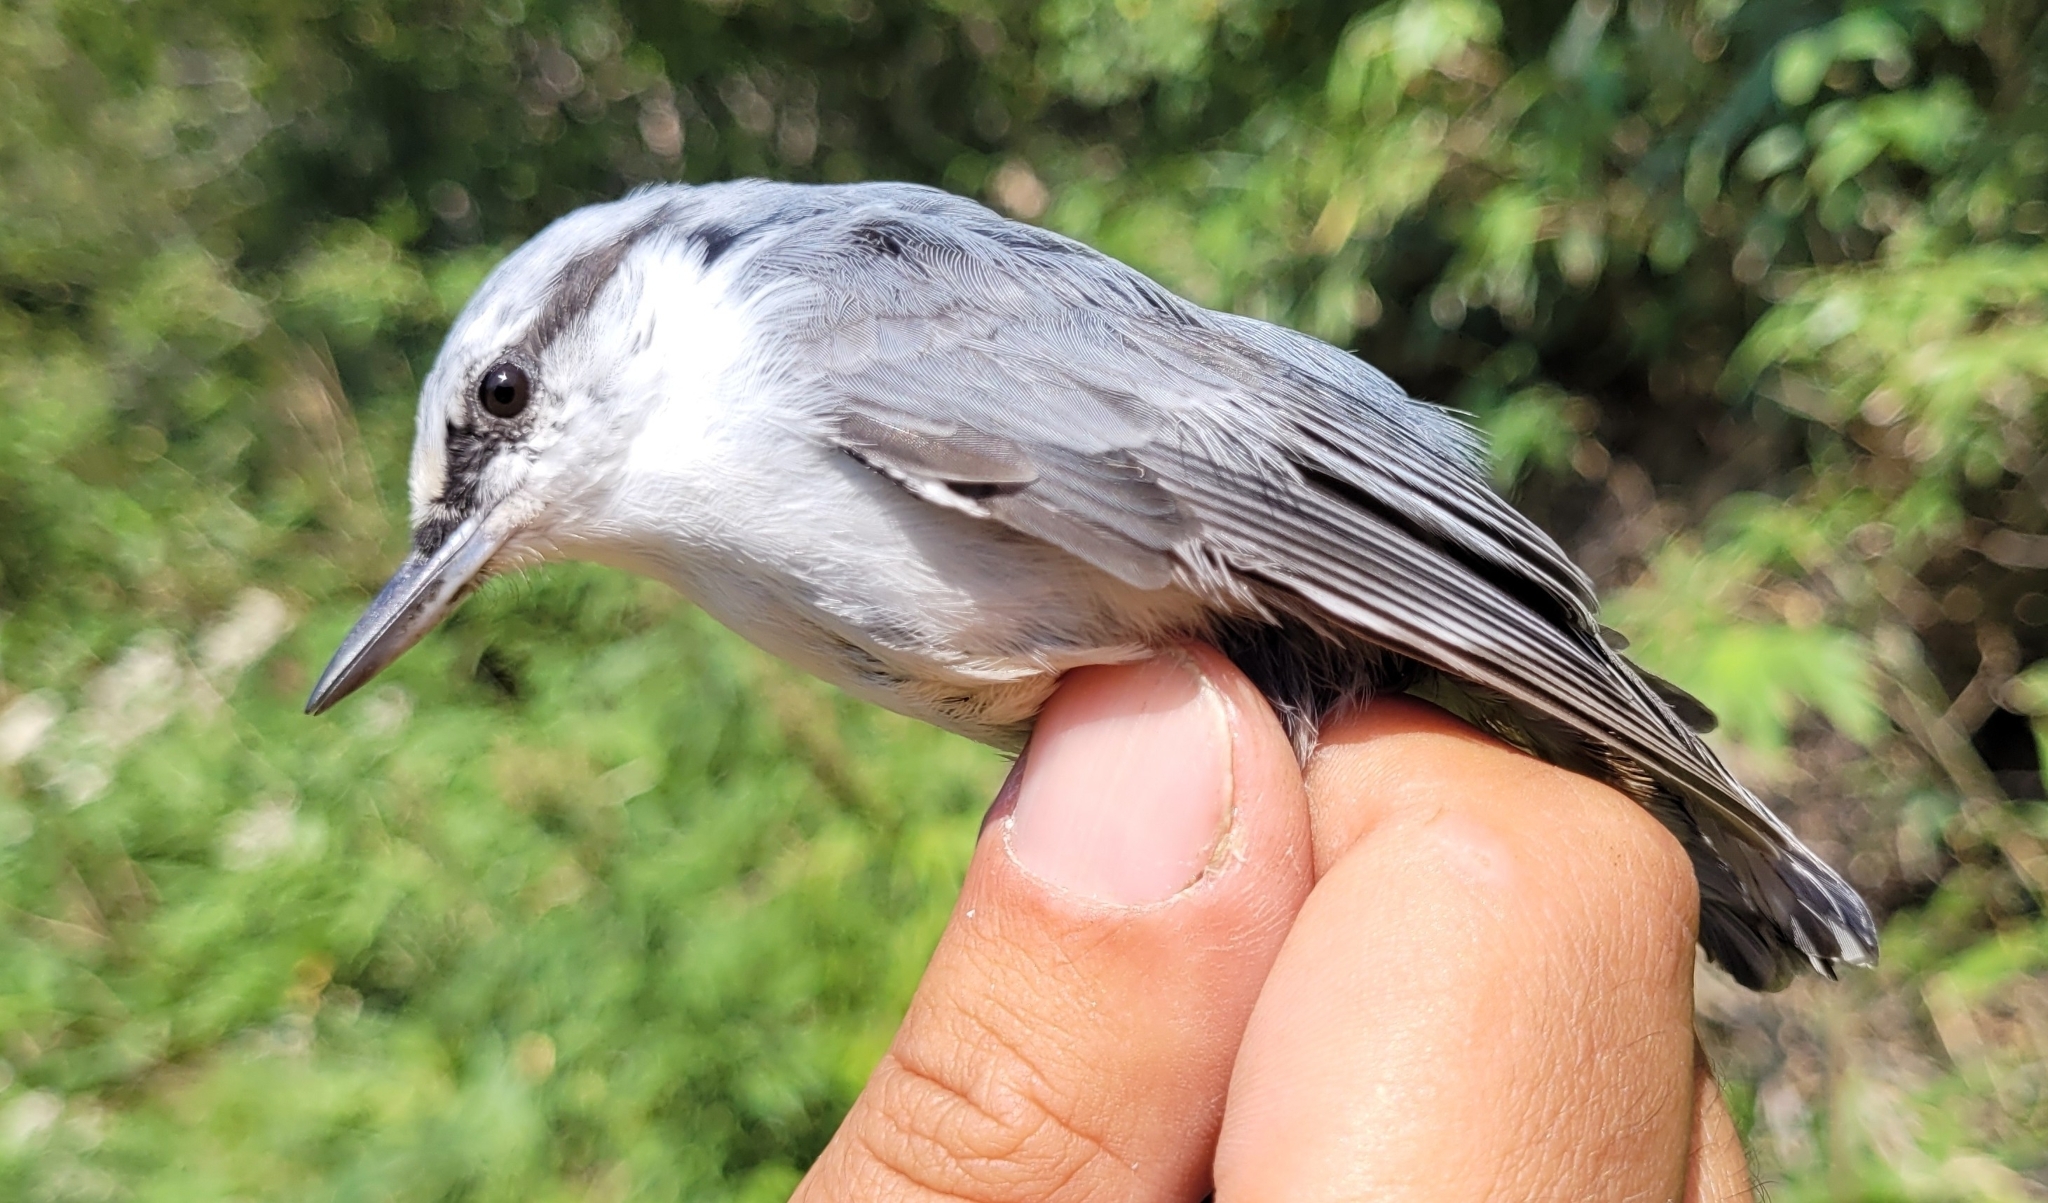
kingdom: Animalia
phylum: Chordata
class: Aves
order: Passeriformes
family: Sittidae
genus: Sitta
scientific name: Sitta europaea
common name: Eurasian nuthatch
